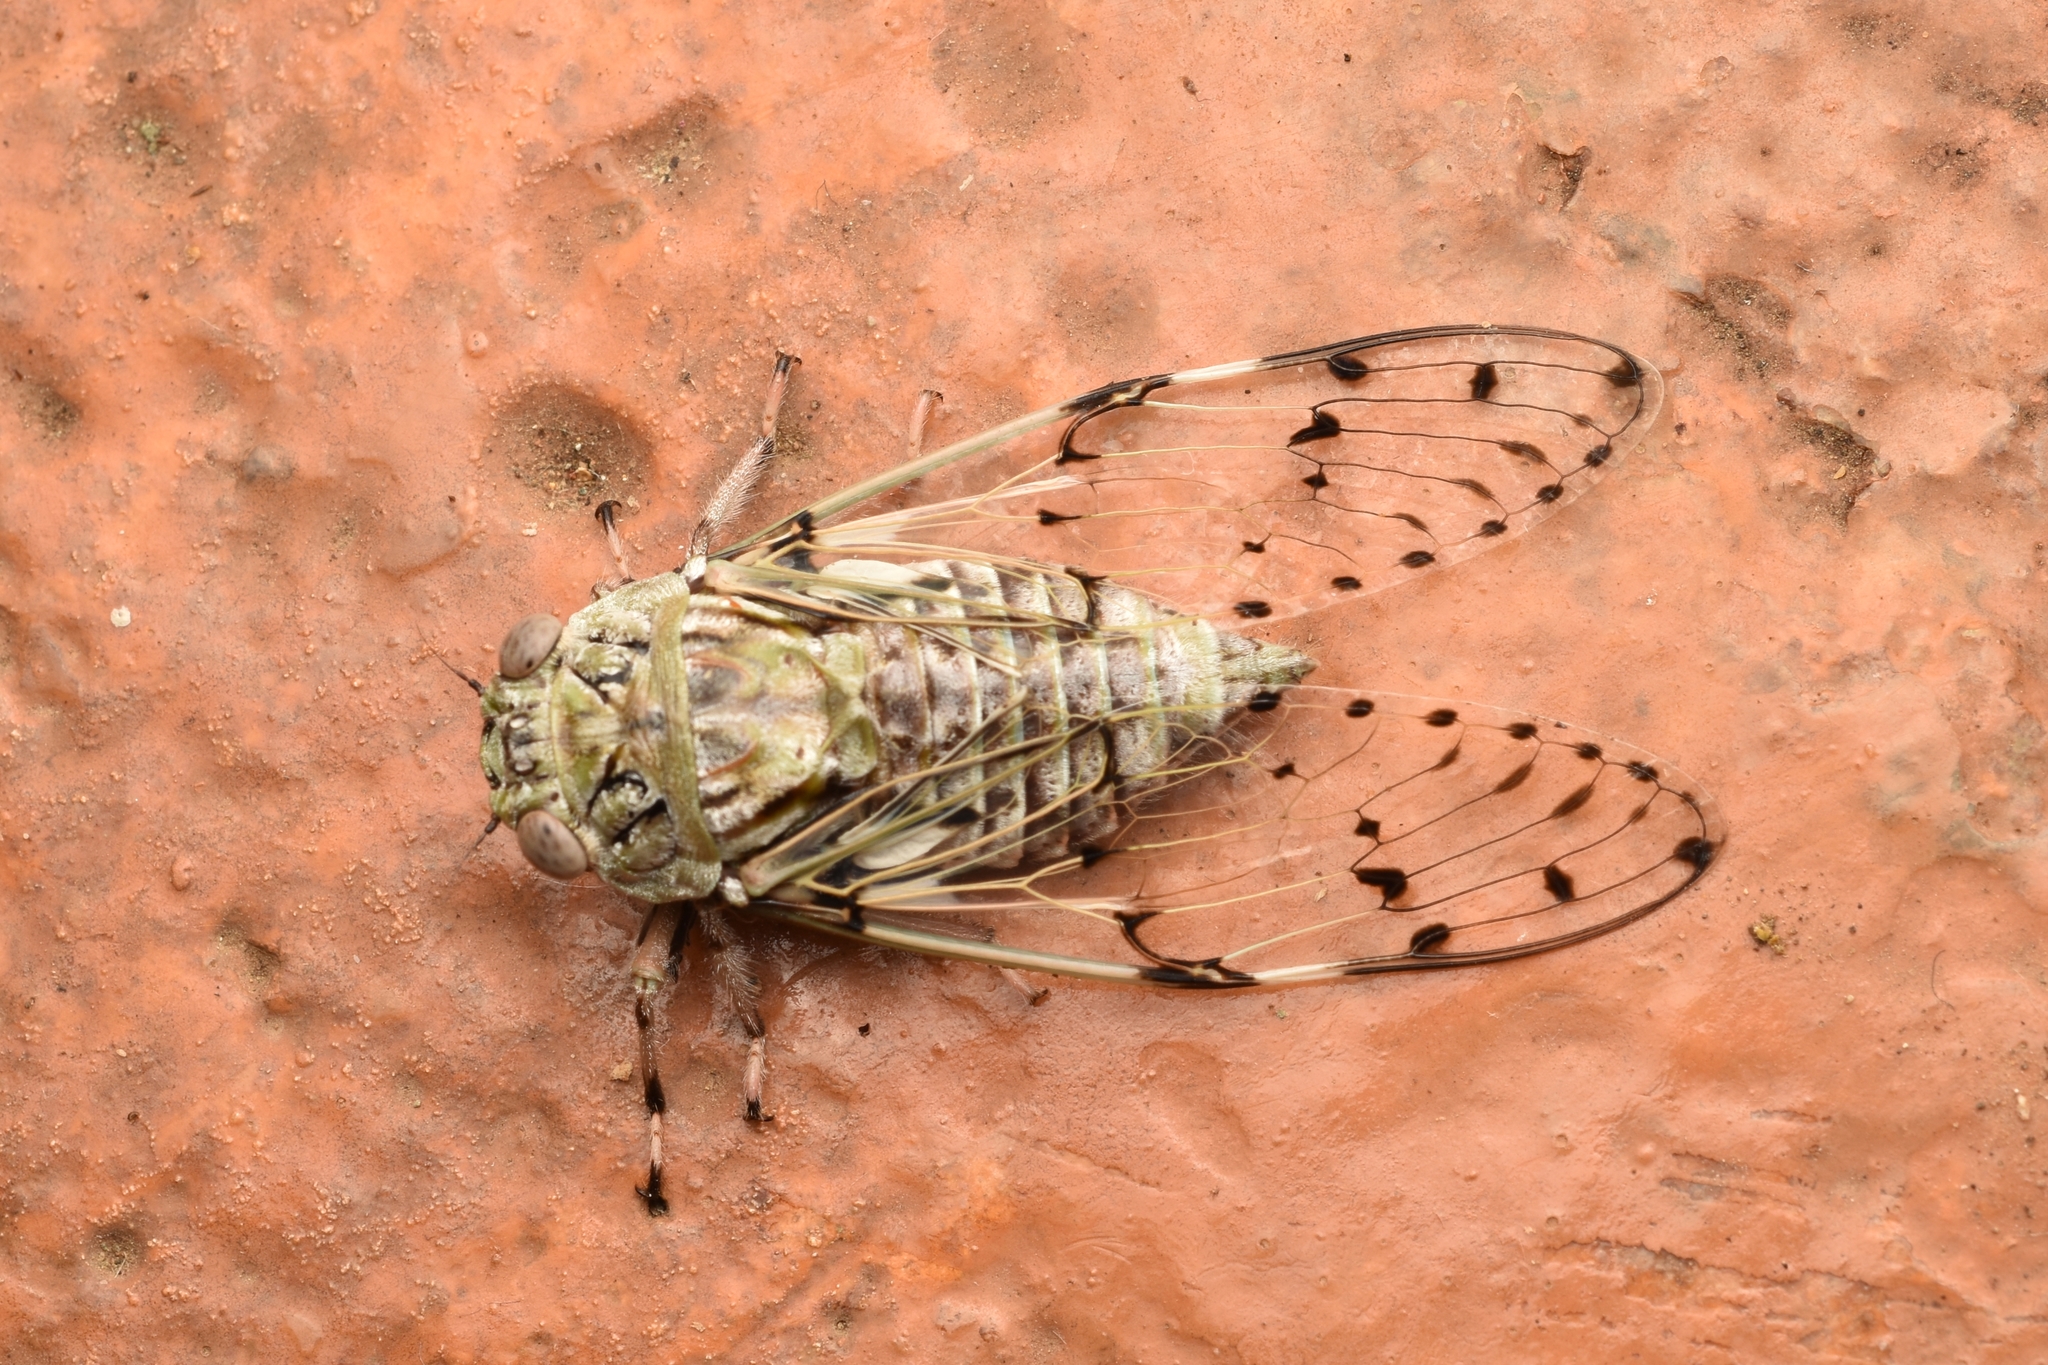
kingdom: Animalia
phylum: Arthropoda
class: Insecta
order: Hemiptera
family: Cicadidae
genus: Proarna
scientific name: Proarna insignis
